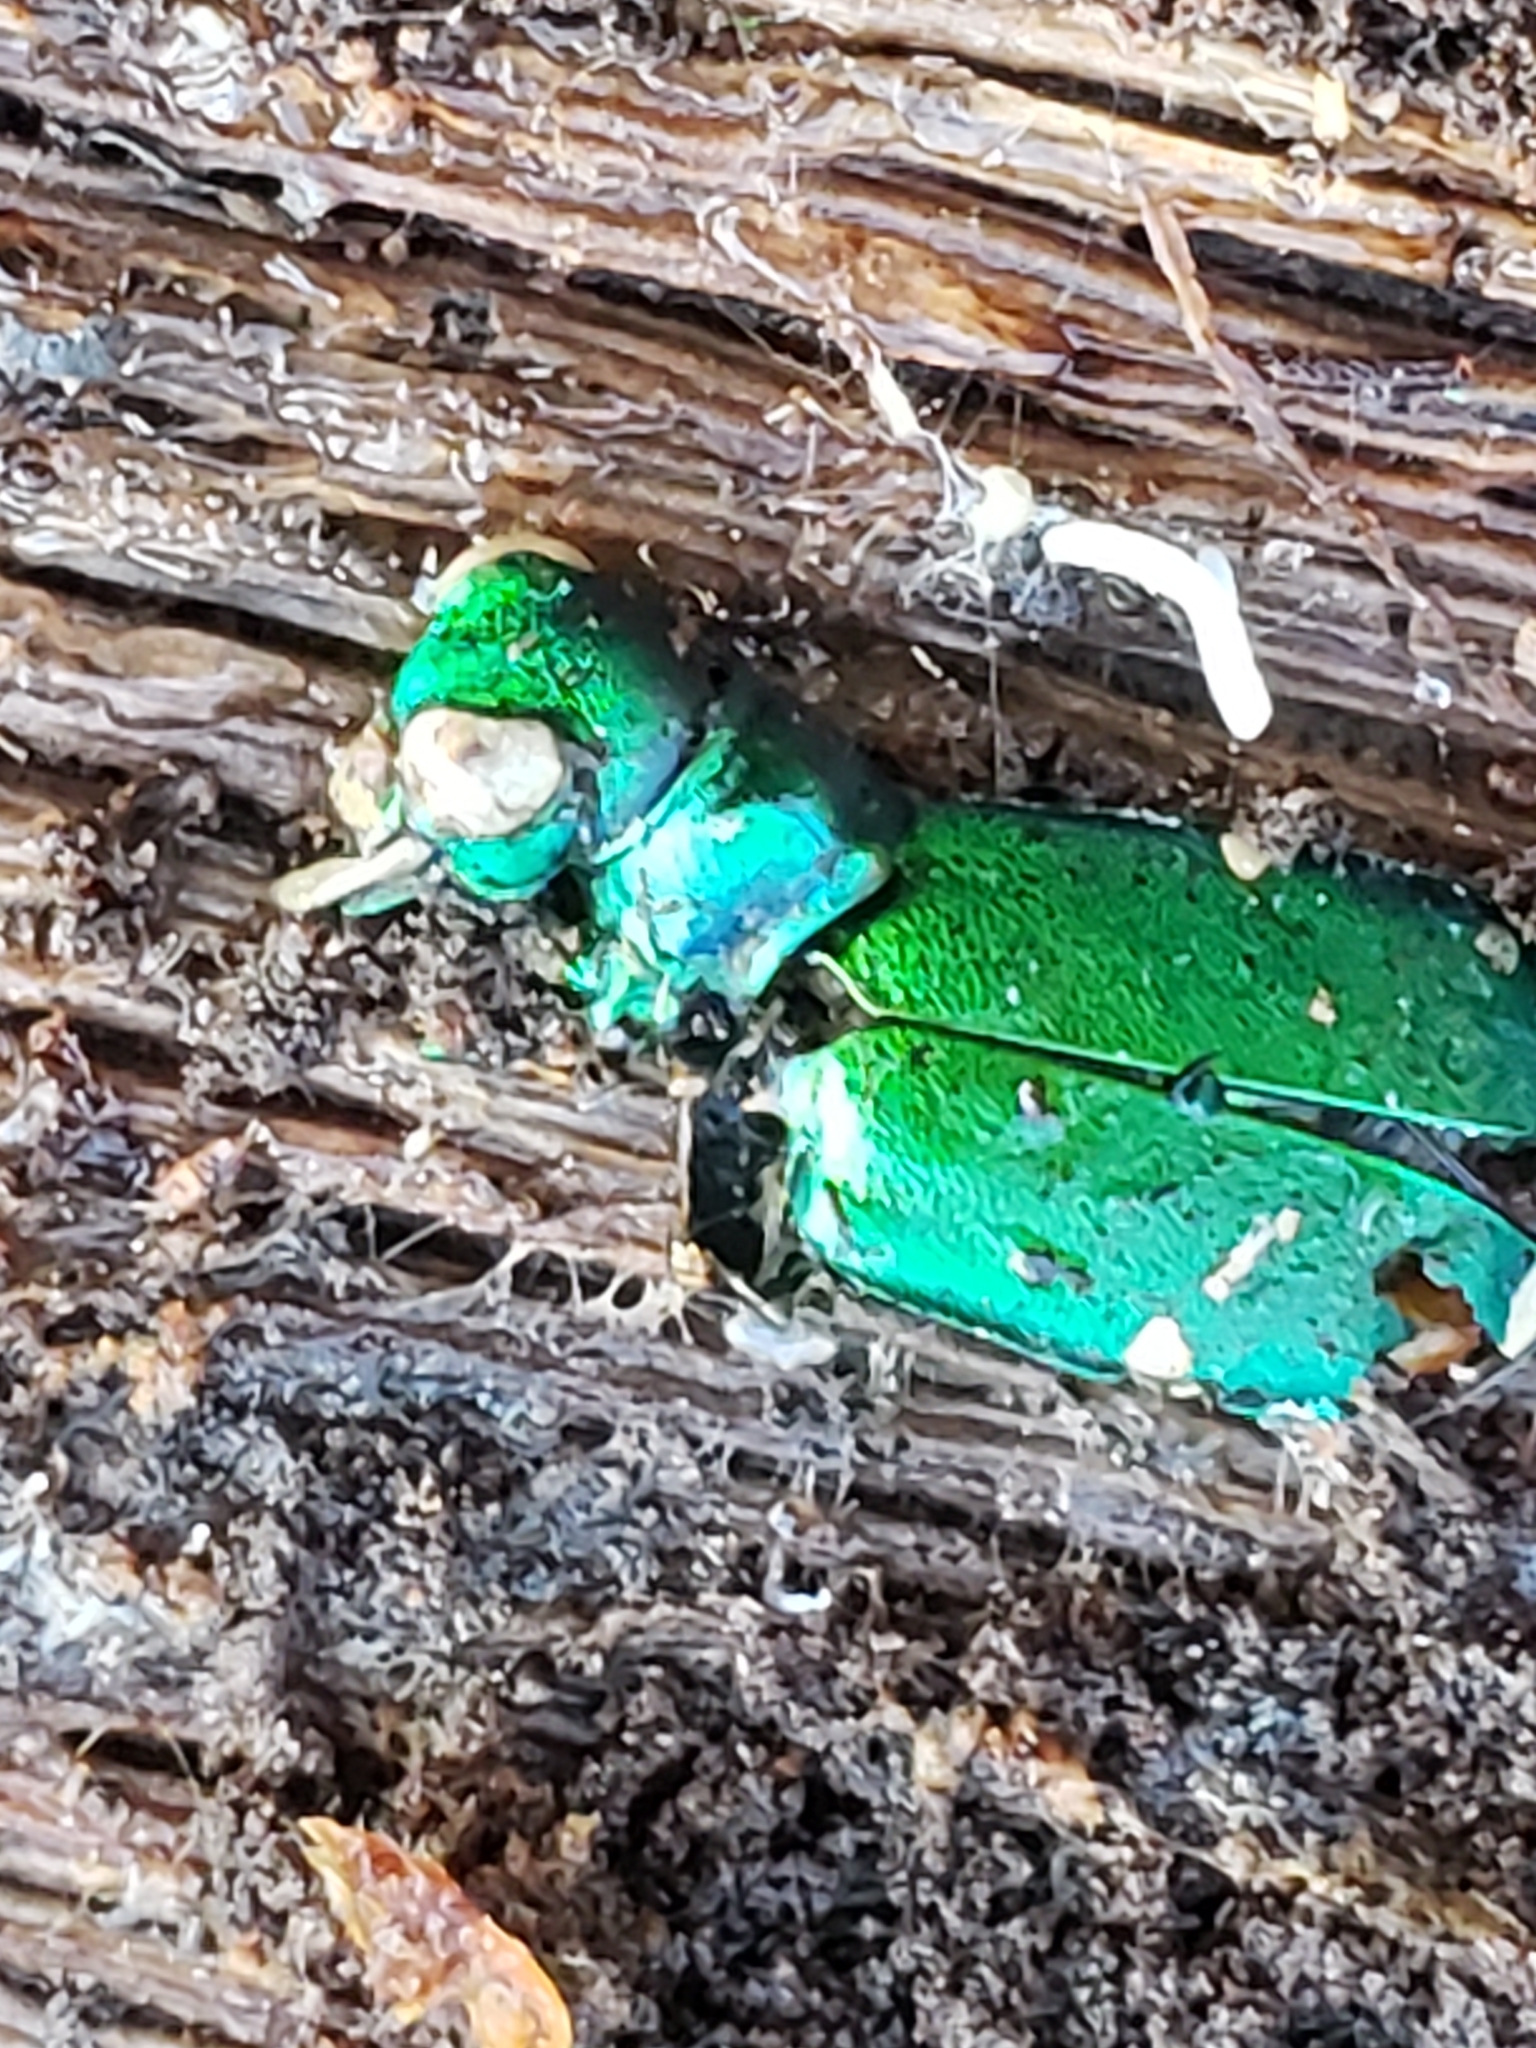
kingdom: Animalia
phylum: Arthropoda
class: Insecta
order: Coleoptera
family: Carabidae
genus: Cicindela
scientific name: Cicindela sexguttata
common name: Six-spotted tiger beetle
